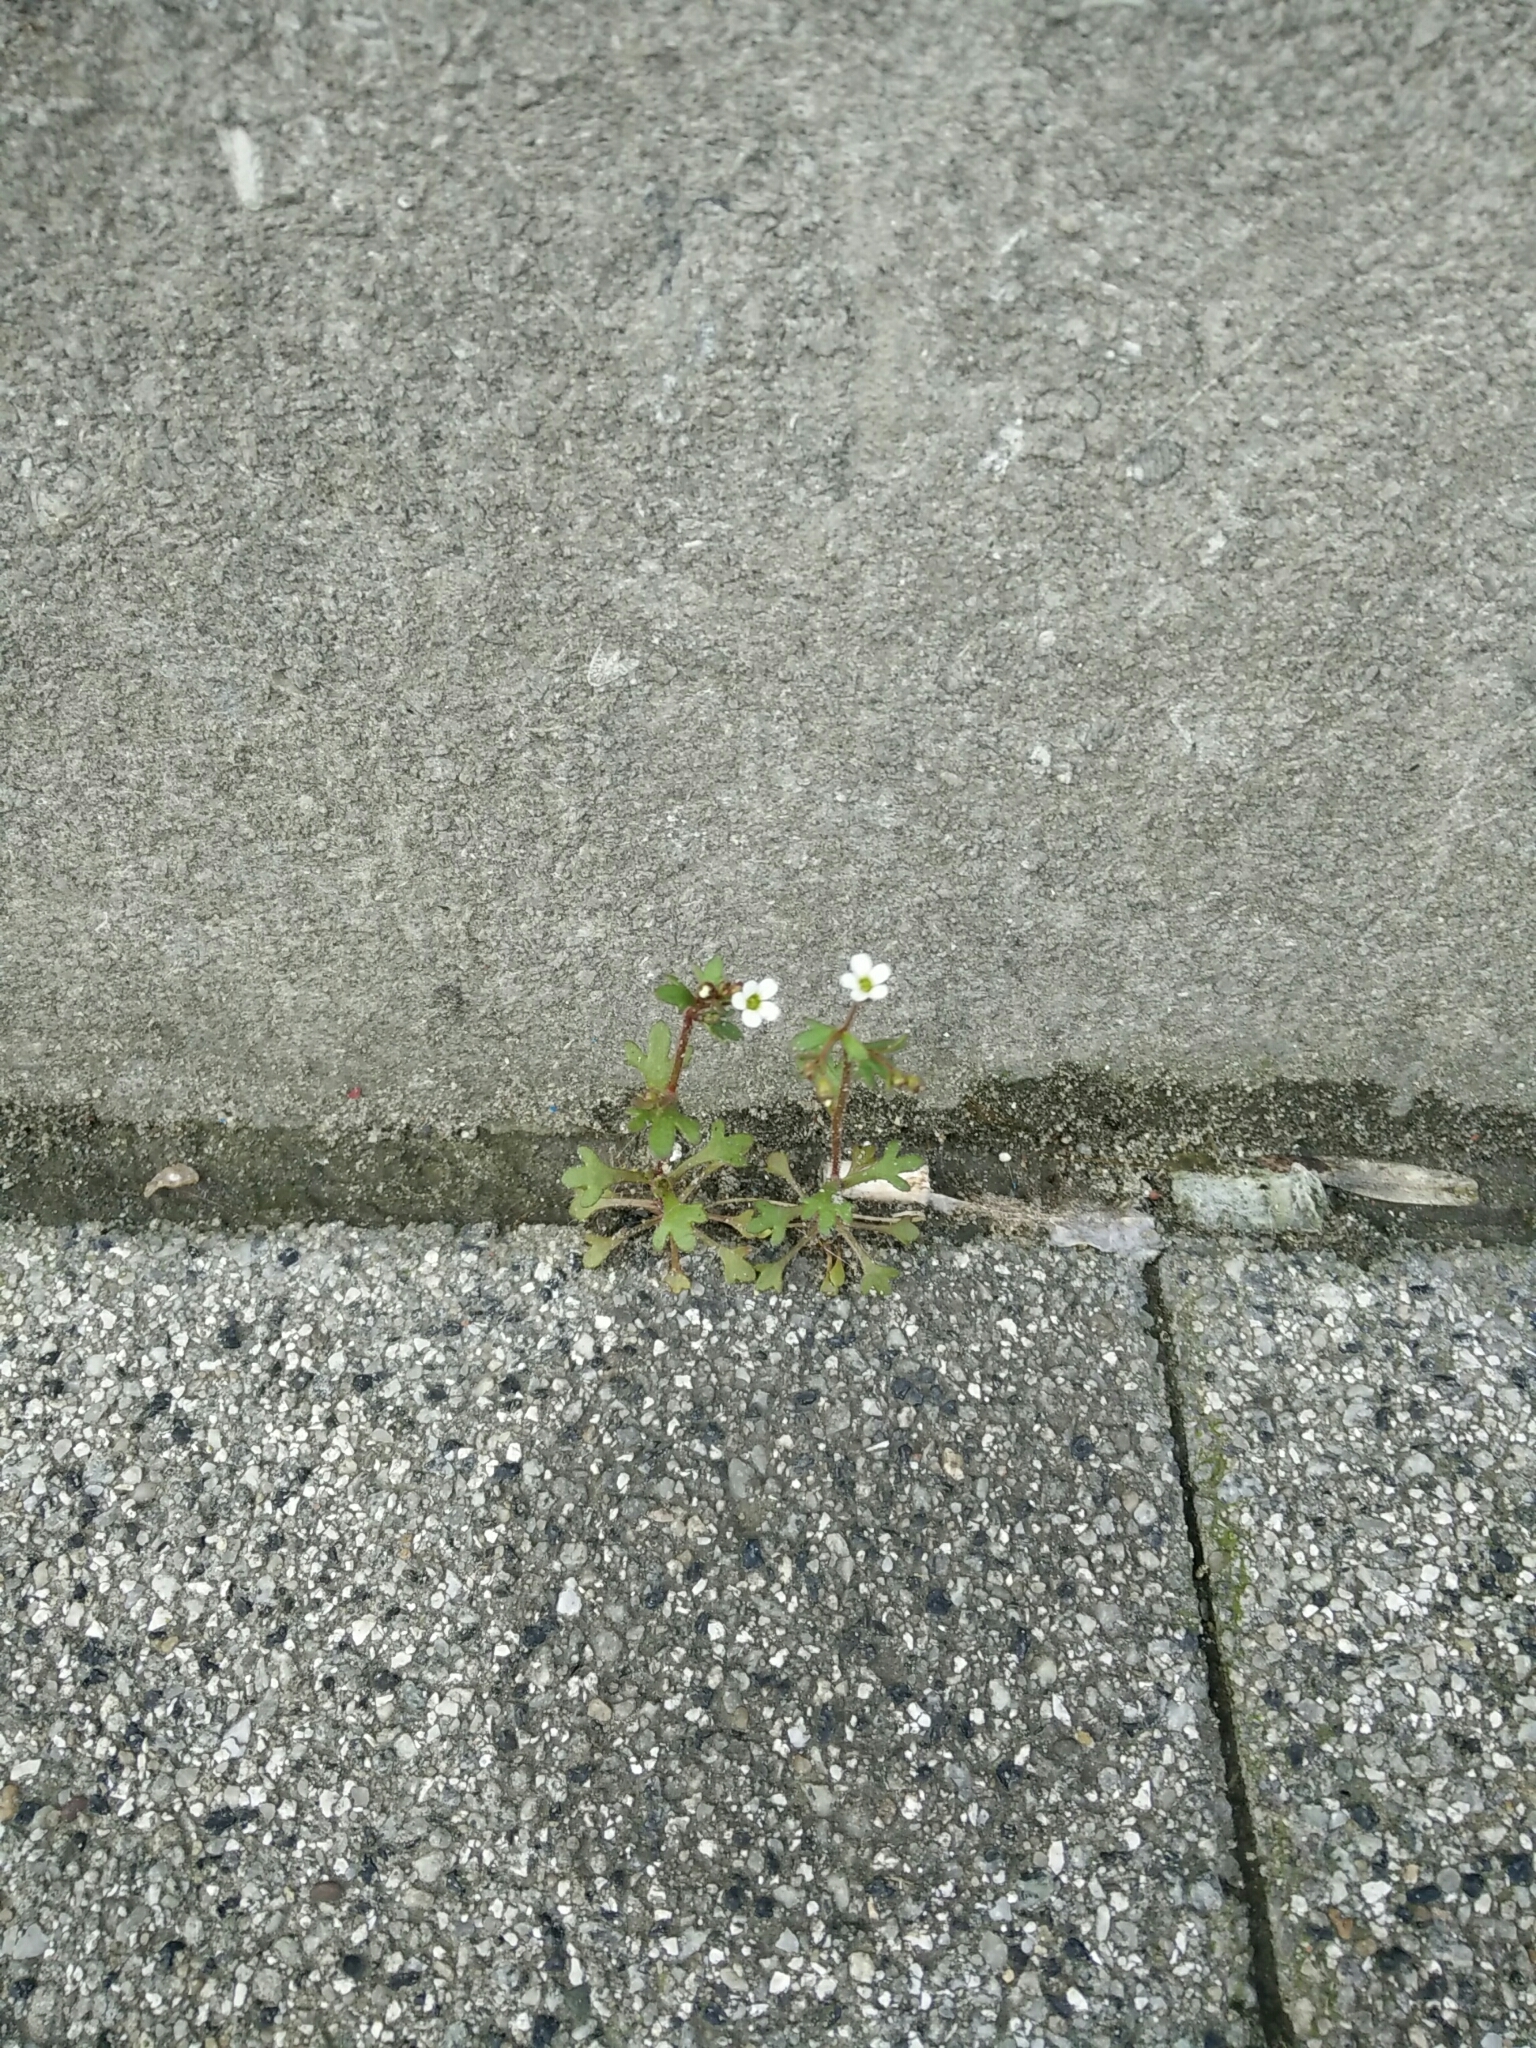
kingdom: Plantae
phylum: Tracheophyta
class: Magnoliopsida
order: Saxifragales
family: Saxifragaceae
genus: Saxifraga
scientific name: Saxifraga tridactylites
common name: Rue-leaved saxifrage
